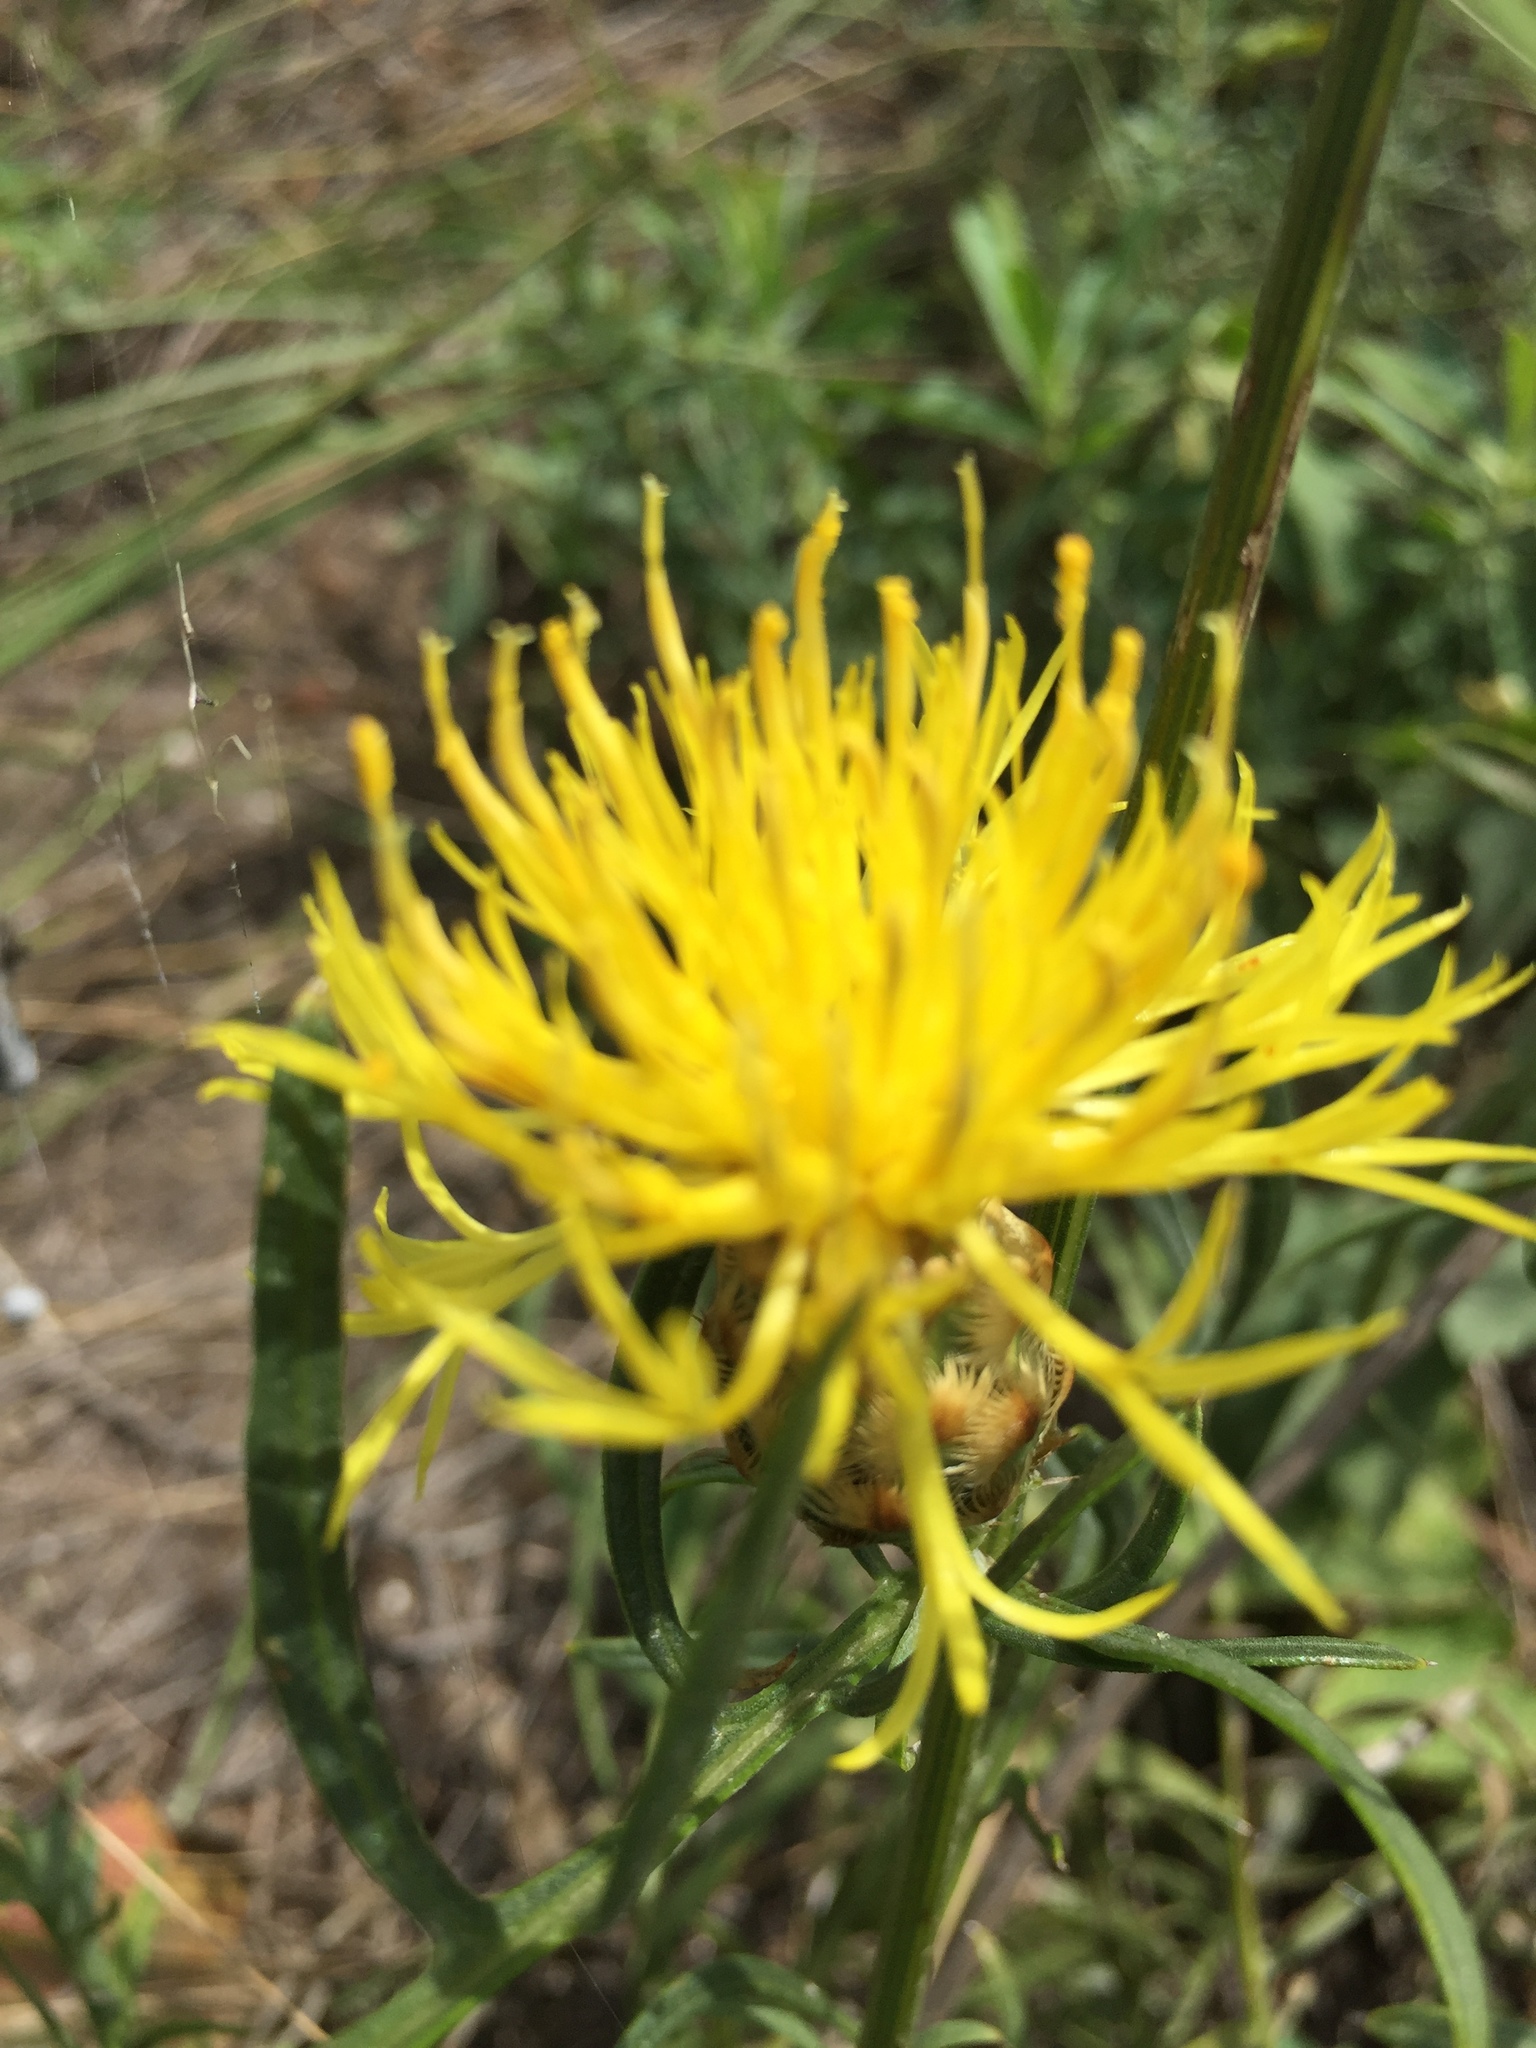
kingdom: Plantae
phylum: Tracheophyta
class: Magnoliopsida
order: Asterales
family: Asteraceae
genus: Centaurea
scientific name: Centaurea orientalis
